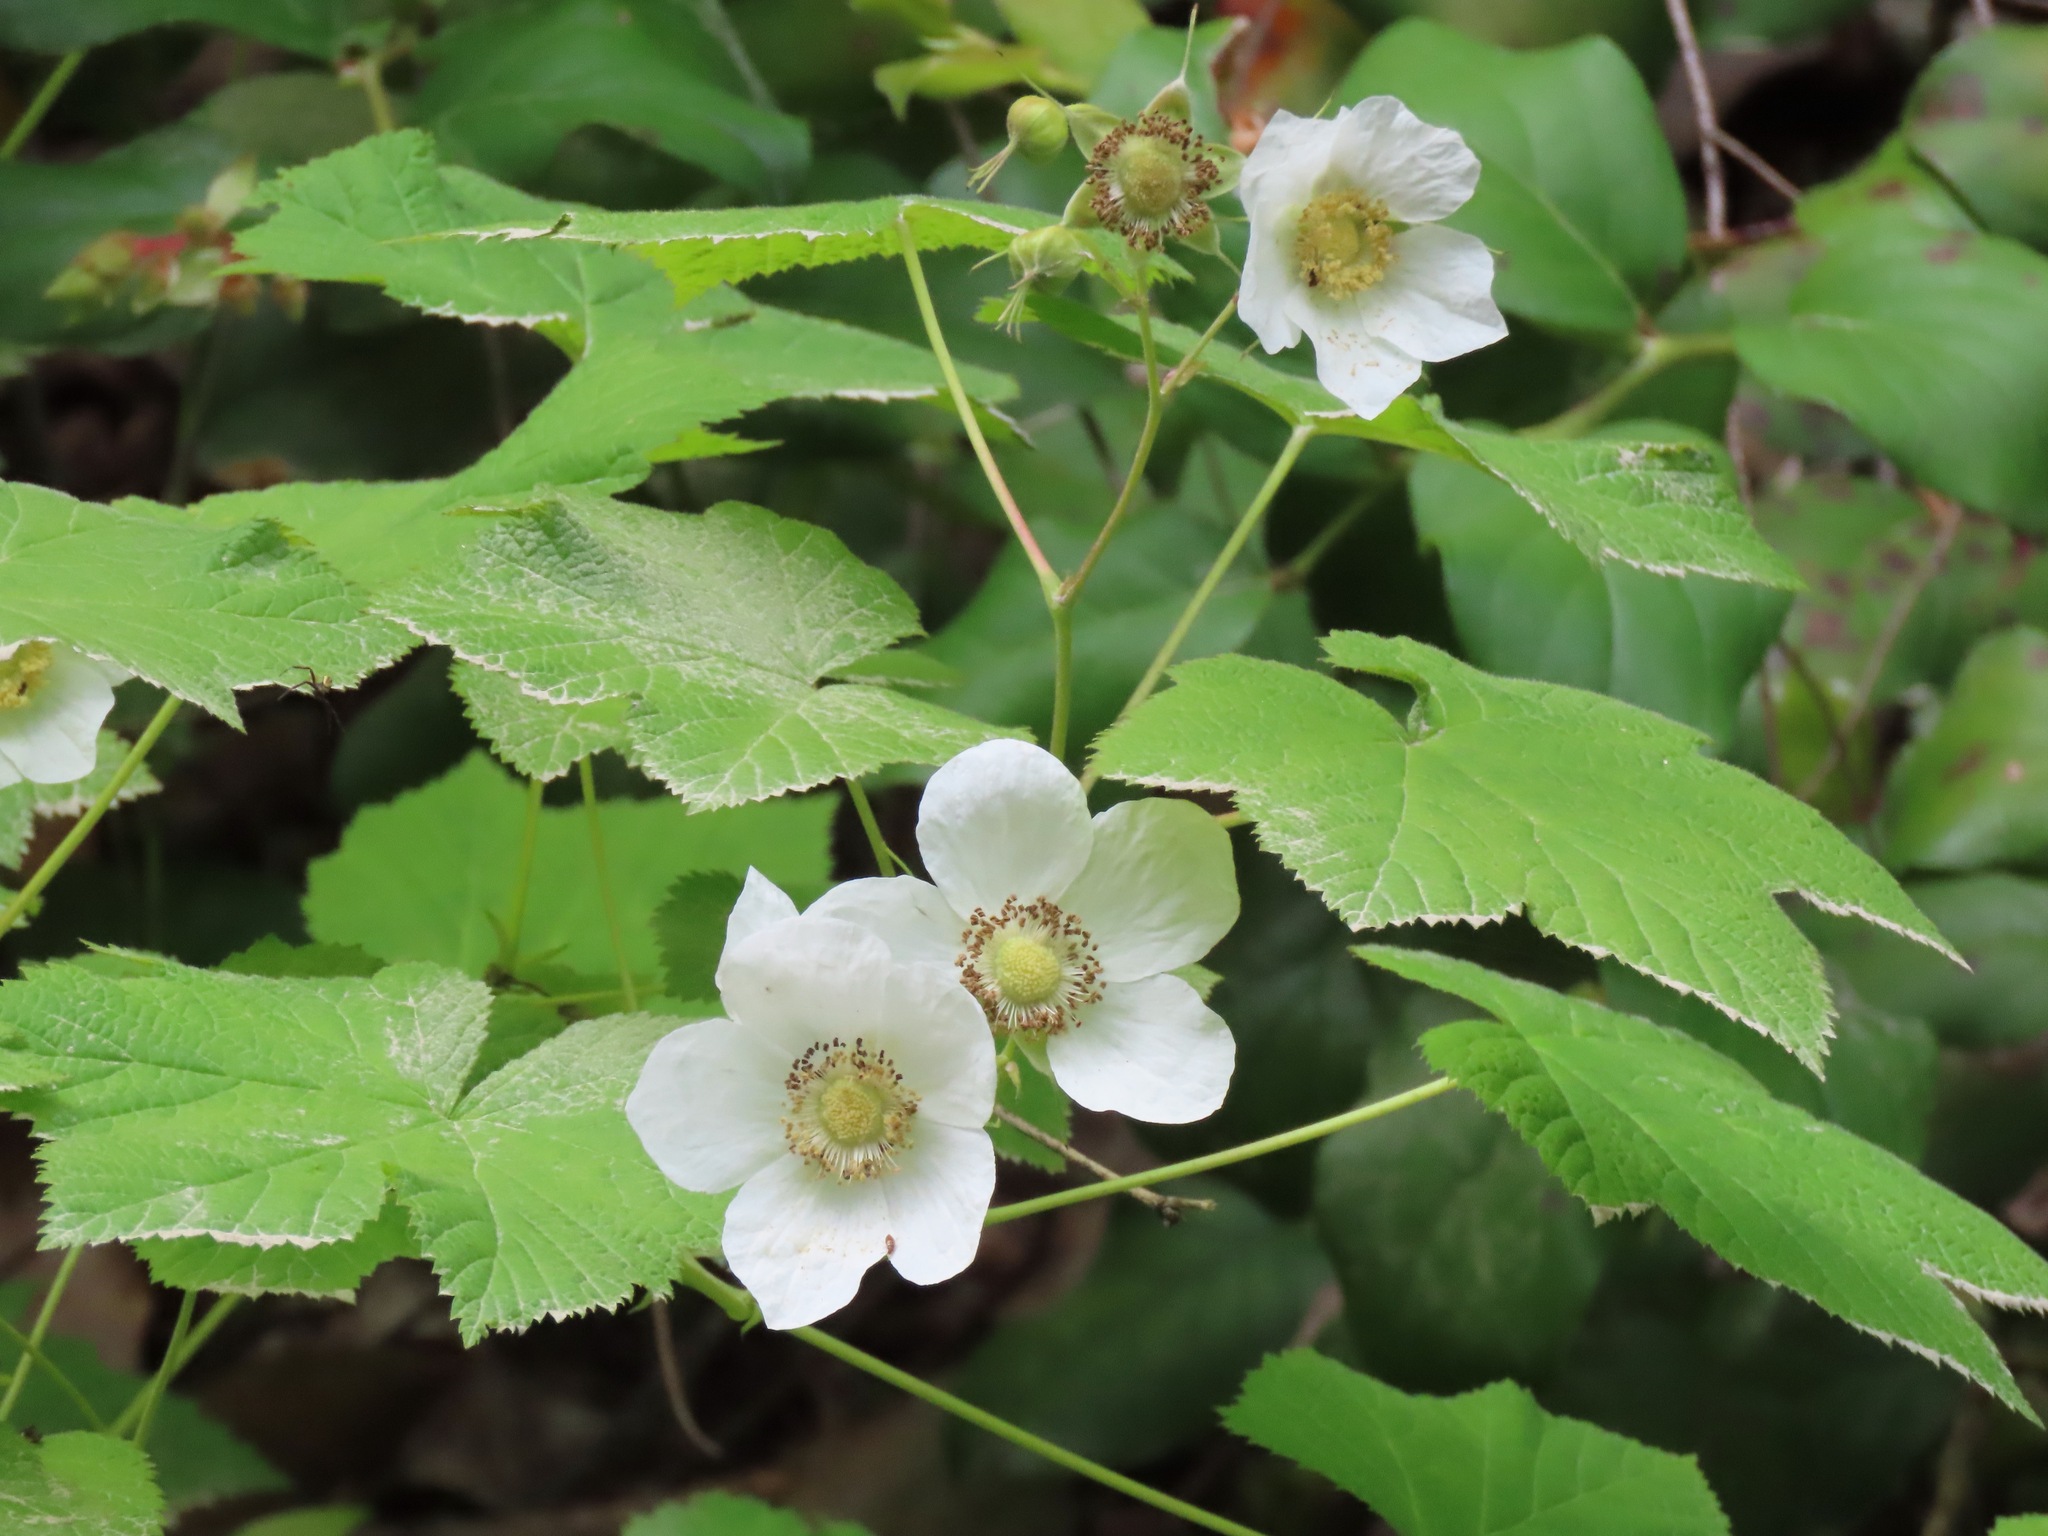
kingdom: Plantae
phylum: Tracheophyta
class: Magnoliopsida
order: Rosales
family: Rosaceae
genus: Rubus
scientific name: Rubus parviflorus
